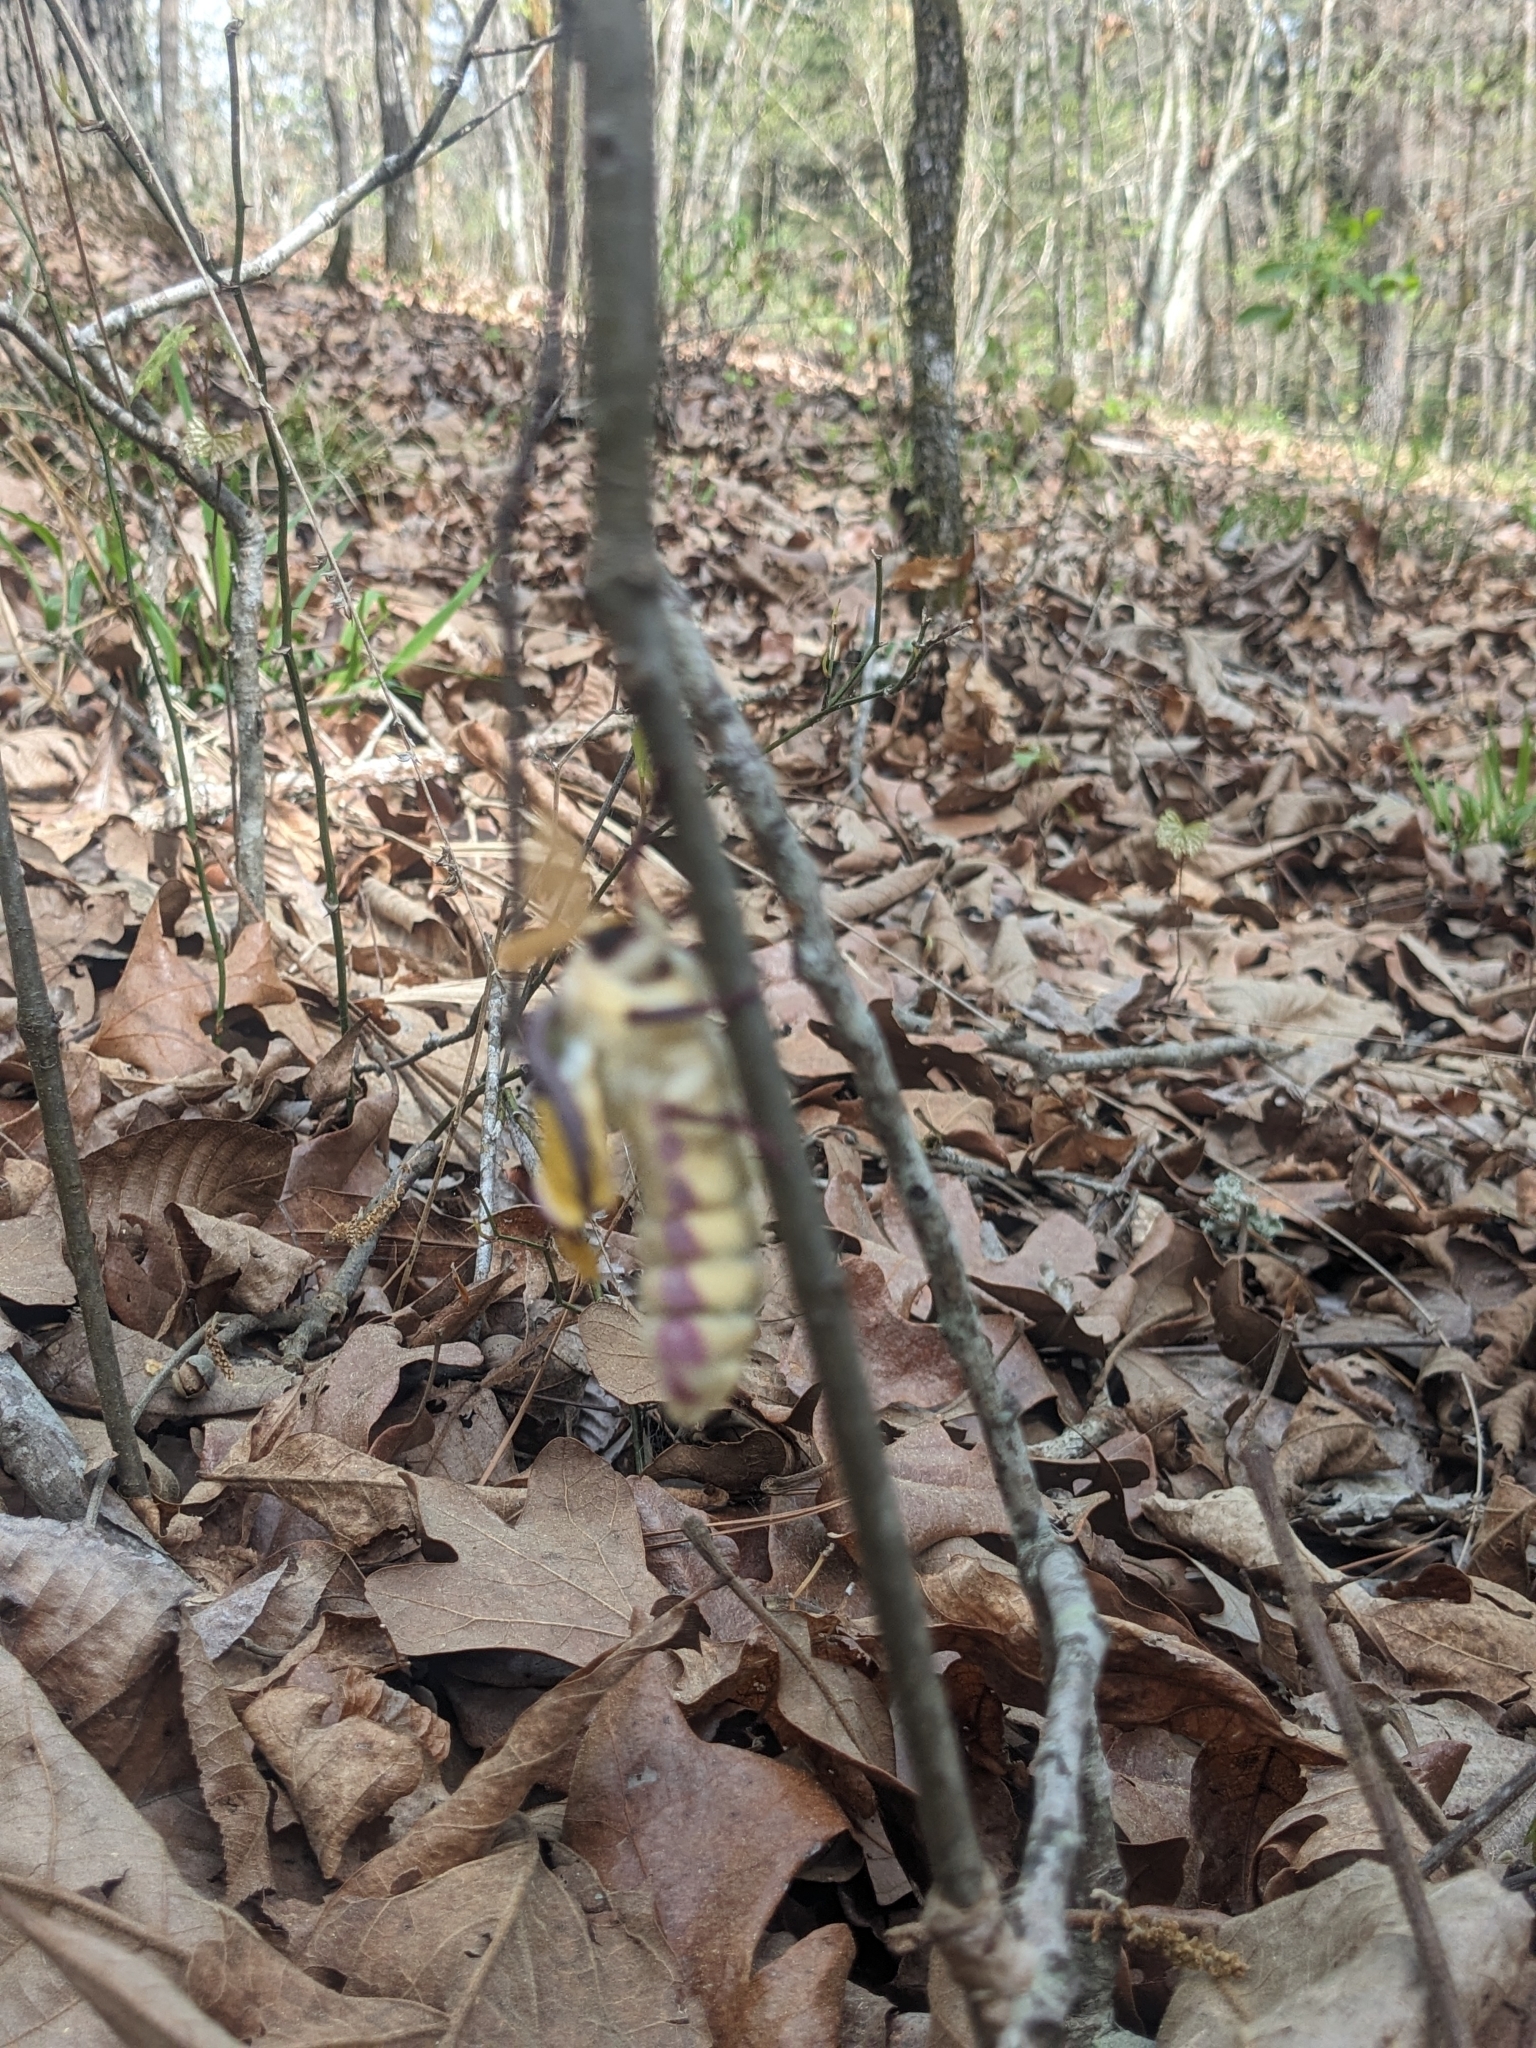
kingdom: Animalia
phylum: Arthropoda
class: Insecta
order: Lepidoptera
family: Saturniidae
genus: Actias
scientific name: Actias luna
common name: Luna moth
